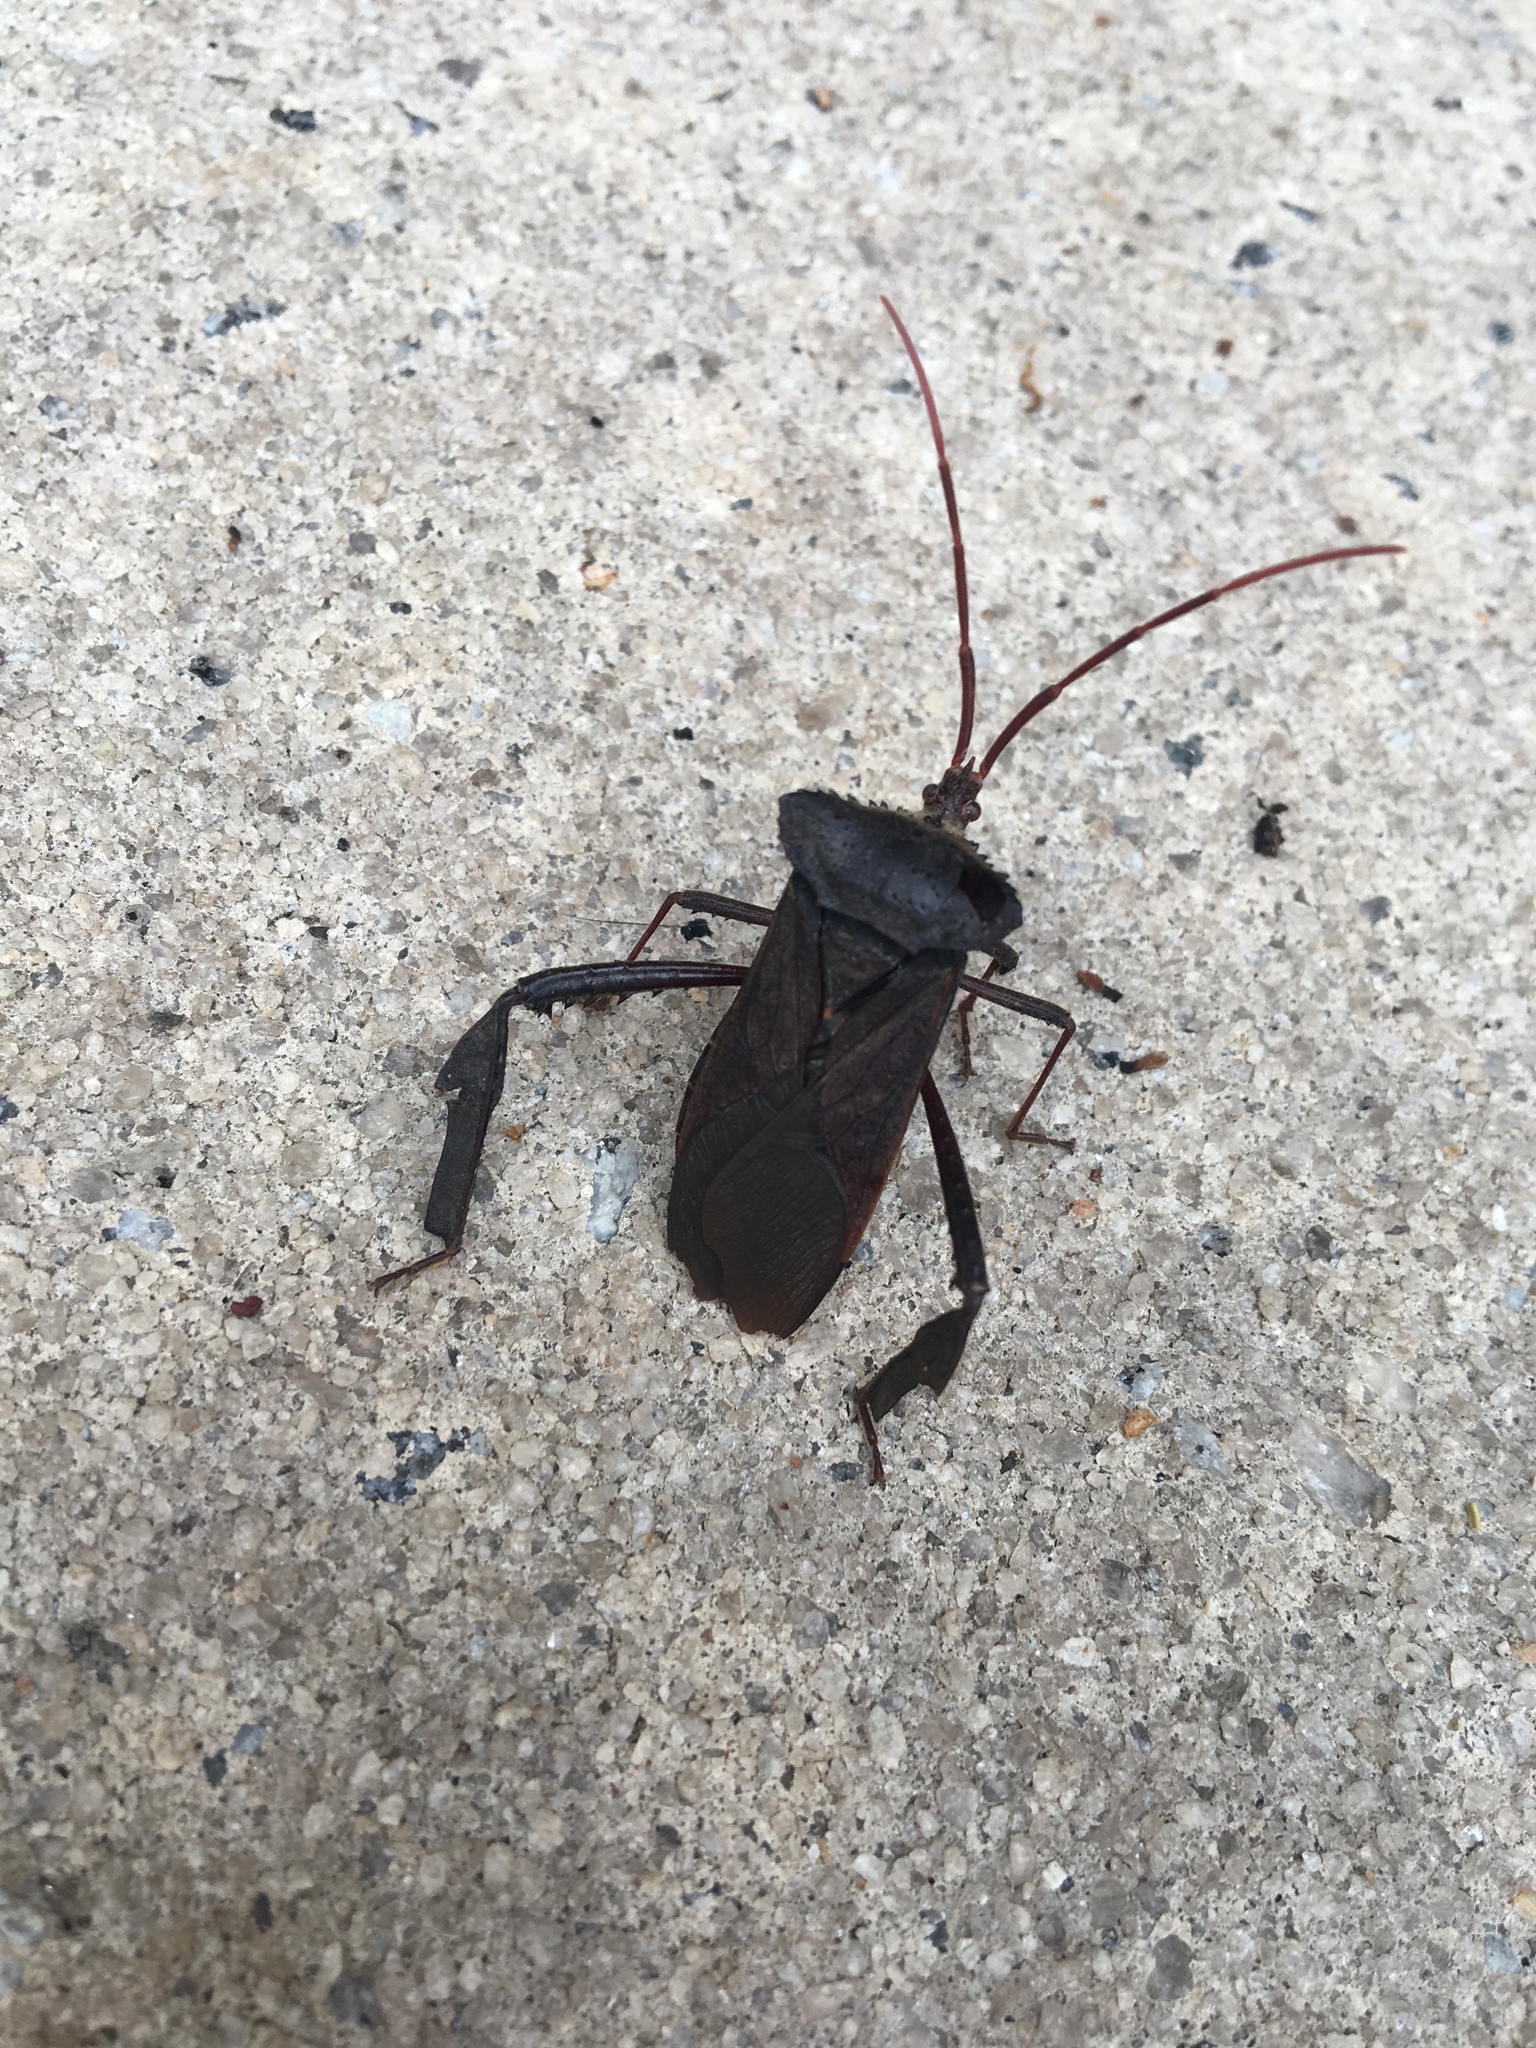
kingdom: Animalia
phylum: Arthropoda
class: Insecta
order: Hemiptera
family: Coreidae
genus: Acanthocephala
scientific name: Acanthocephala declivis
